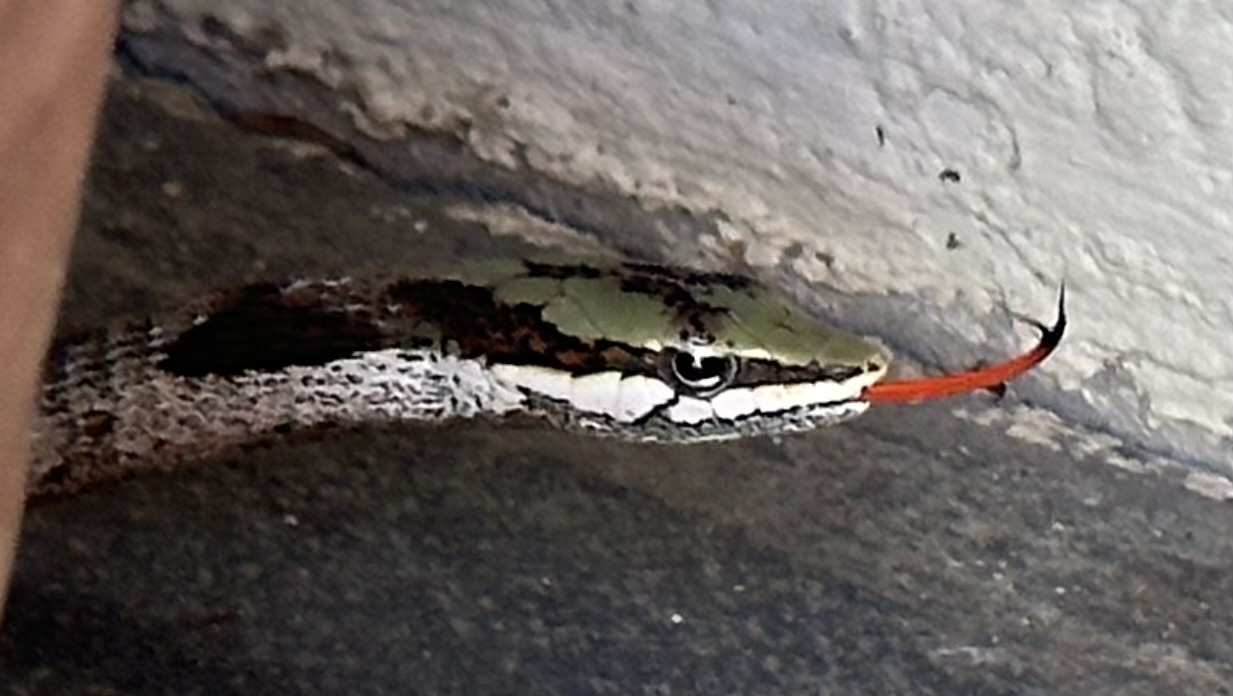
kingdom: Animalia
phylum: Chordata
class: Squamata
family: Colubridae
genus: Thelotornis
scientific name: Thelotornis capensis
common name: Savanna vine snake
